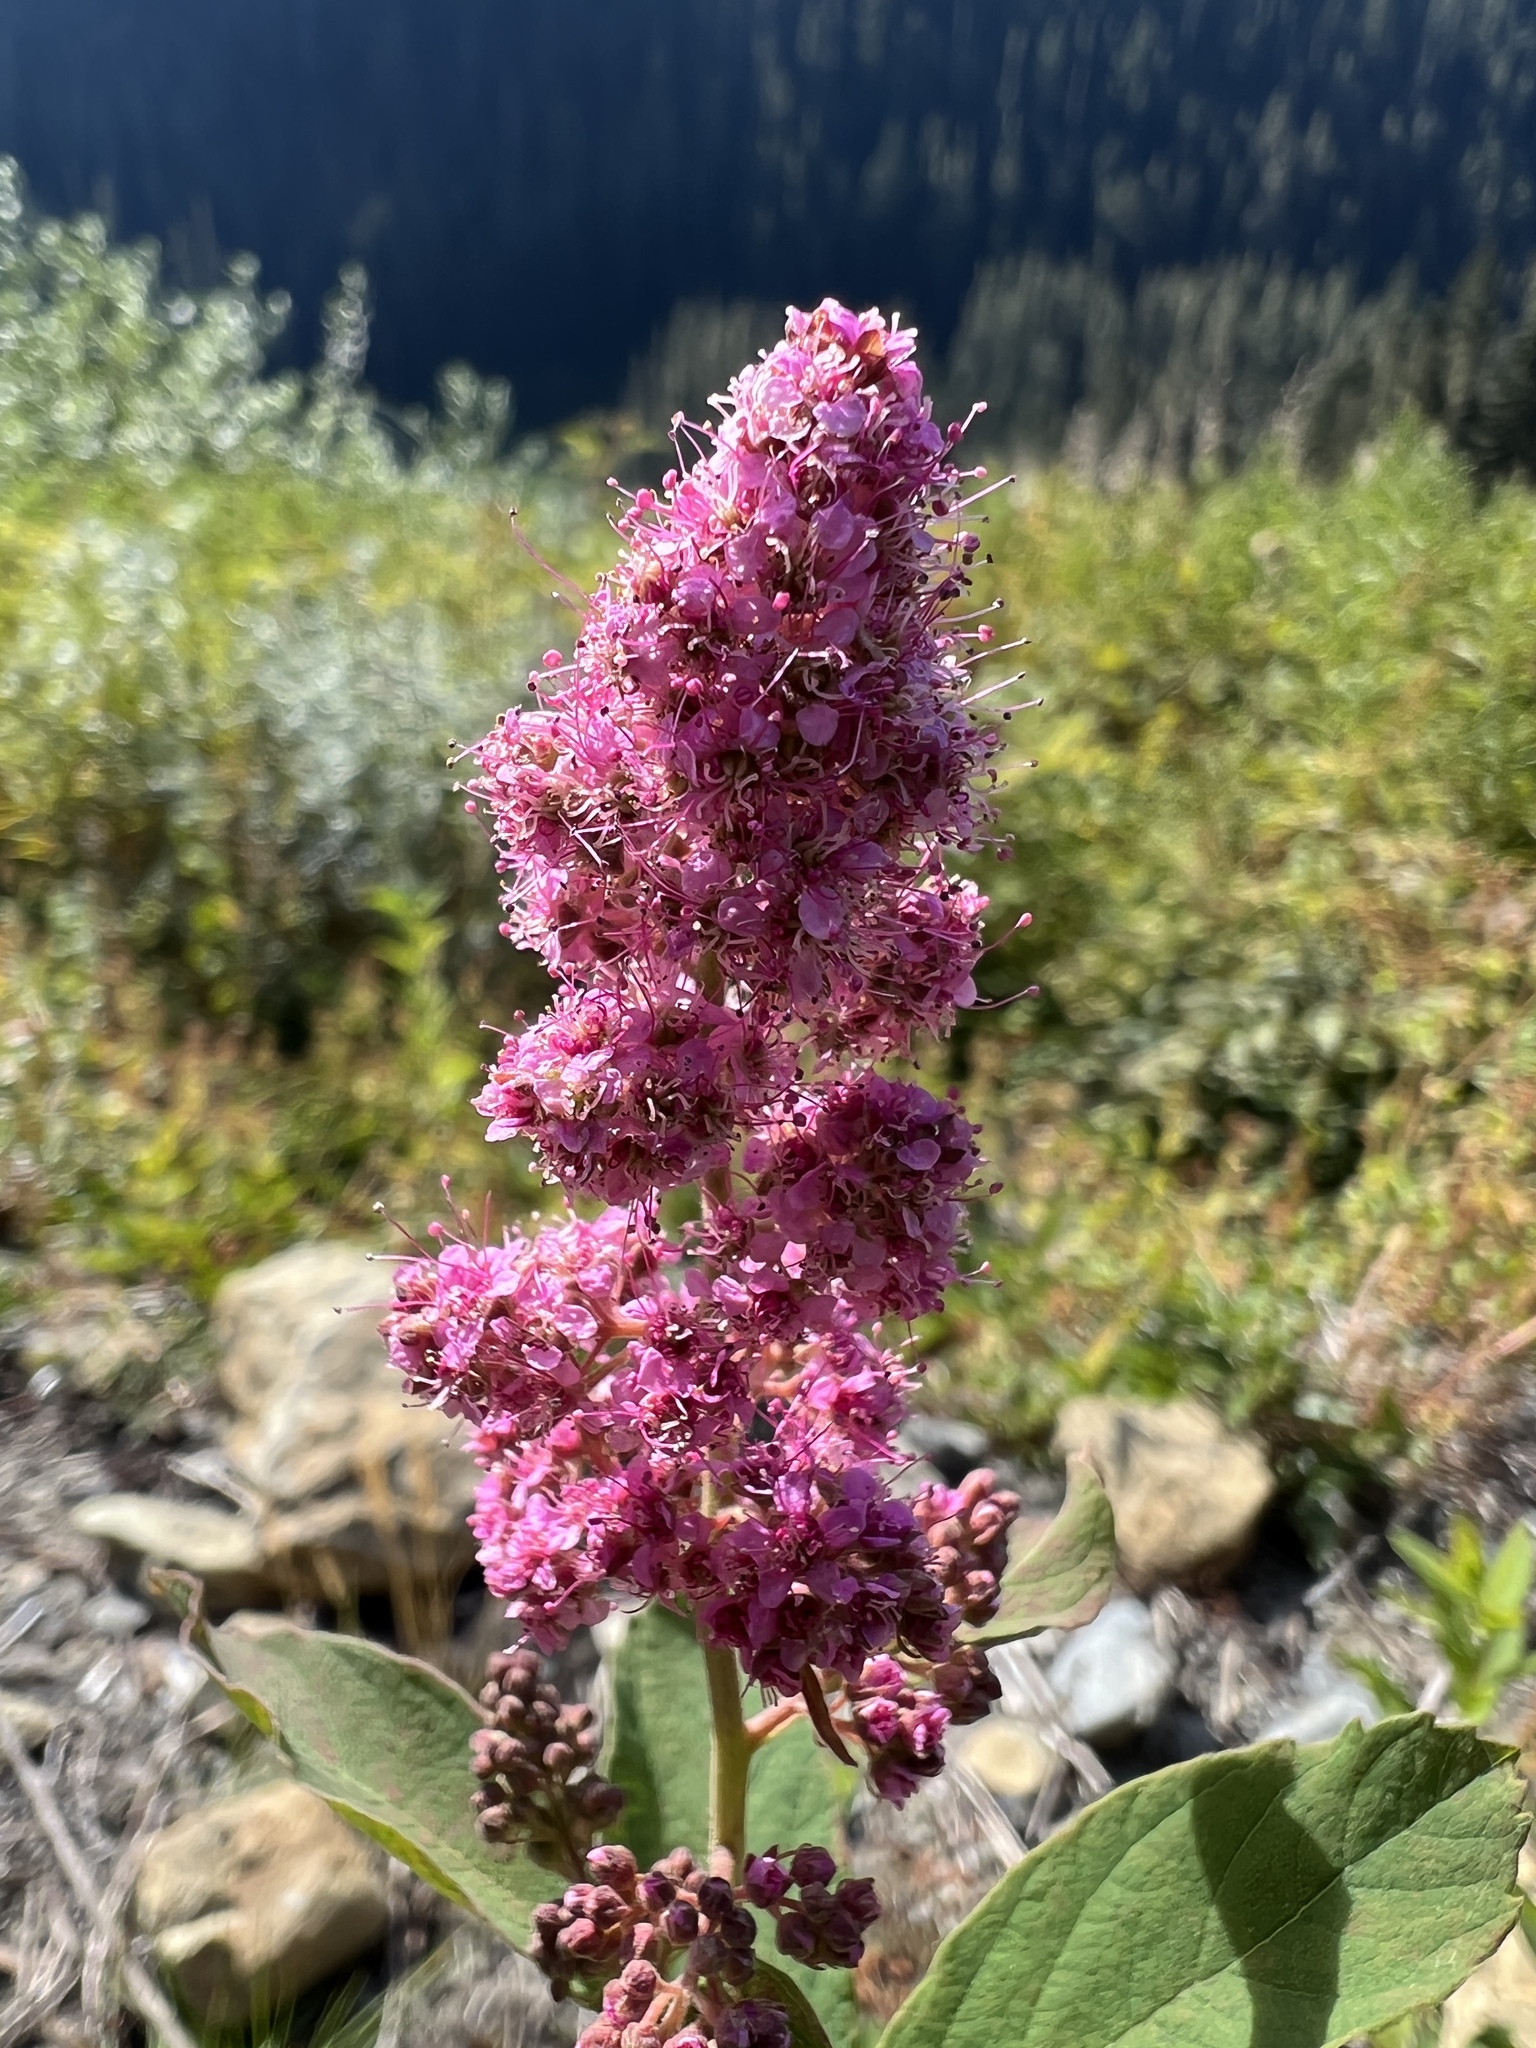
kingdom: Plantae
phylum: Tracheophyta
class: Magnoliopsida
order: Rosales
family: Rosaceae
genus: Spiraea
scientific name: Spiraea douglasii
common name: Steeplebush
